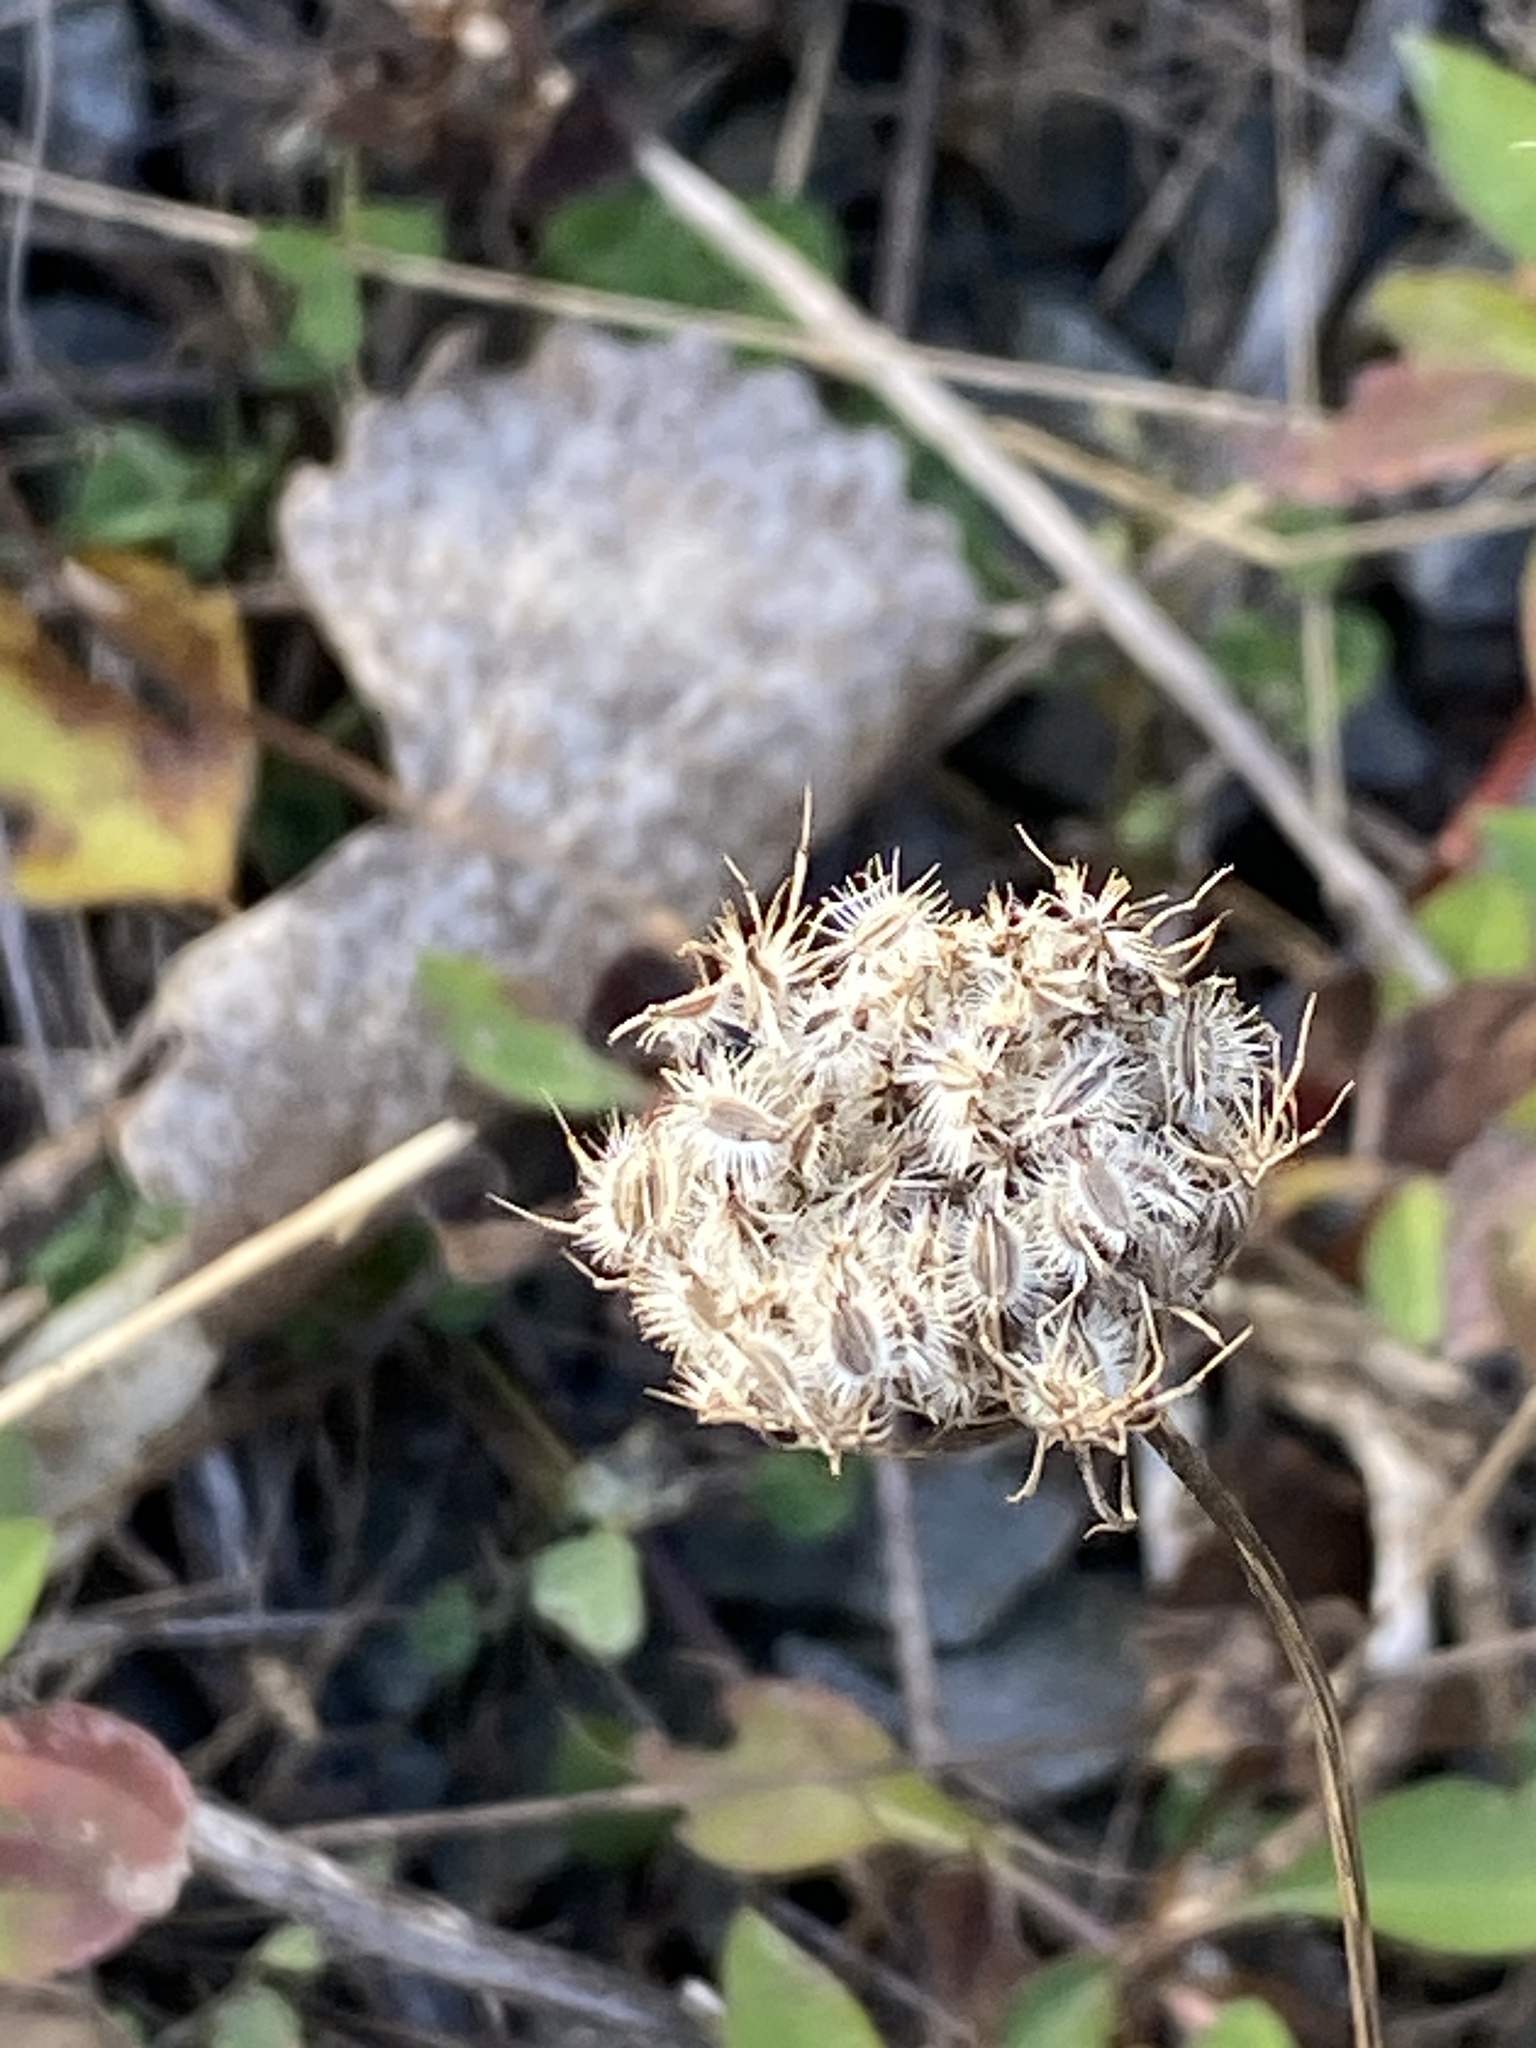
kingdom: Plantae
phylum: Tracheophyta
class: Magnoliopsida
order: Apiales
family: Apiaceae
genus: Daucus
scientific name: Daucus carota
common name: Wild carrot
